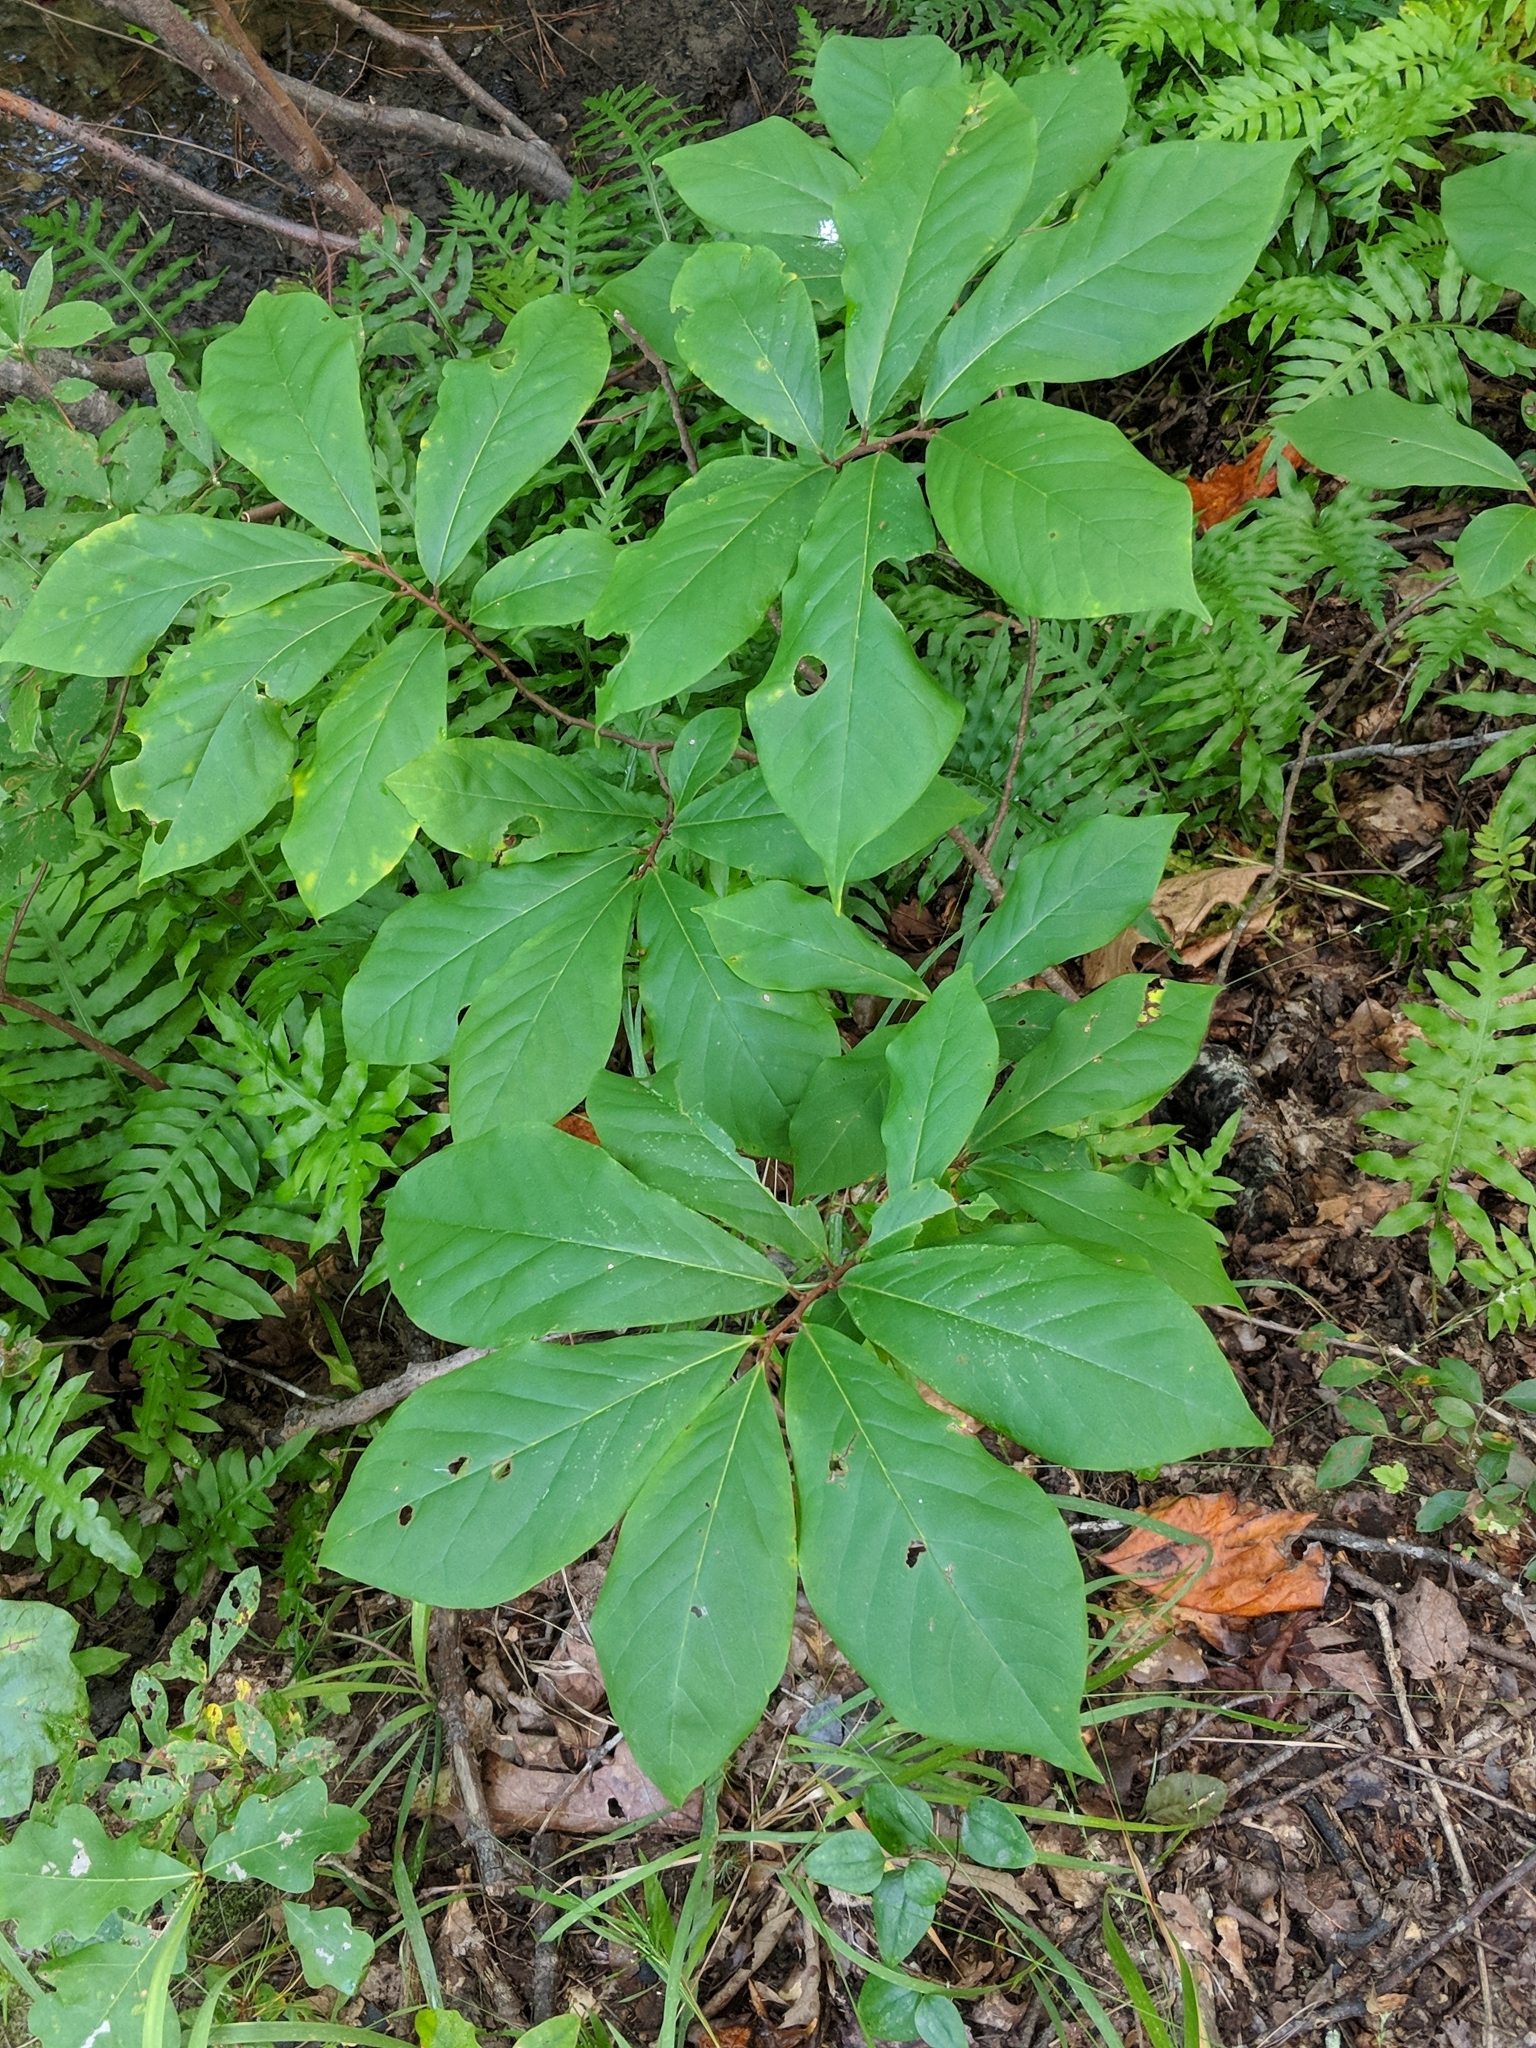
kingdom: Plantae
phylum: Tracheophyta
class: Magnoliopsida
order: Magnoliales
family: Annonaceae
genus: Asimina
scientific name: Asimina parviflora
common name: Dwarf pawpaw
